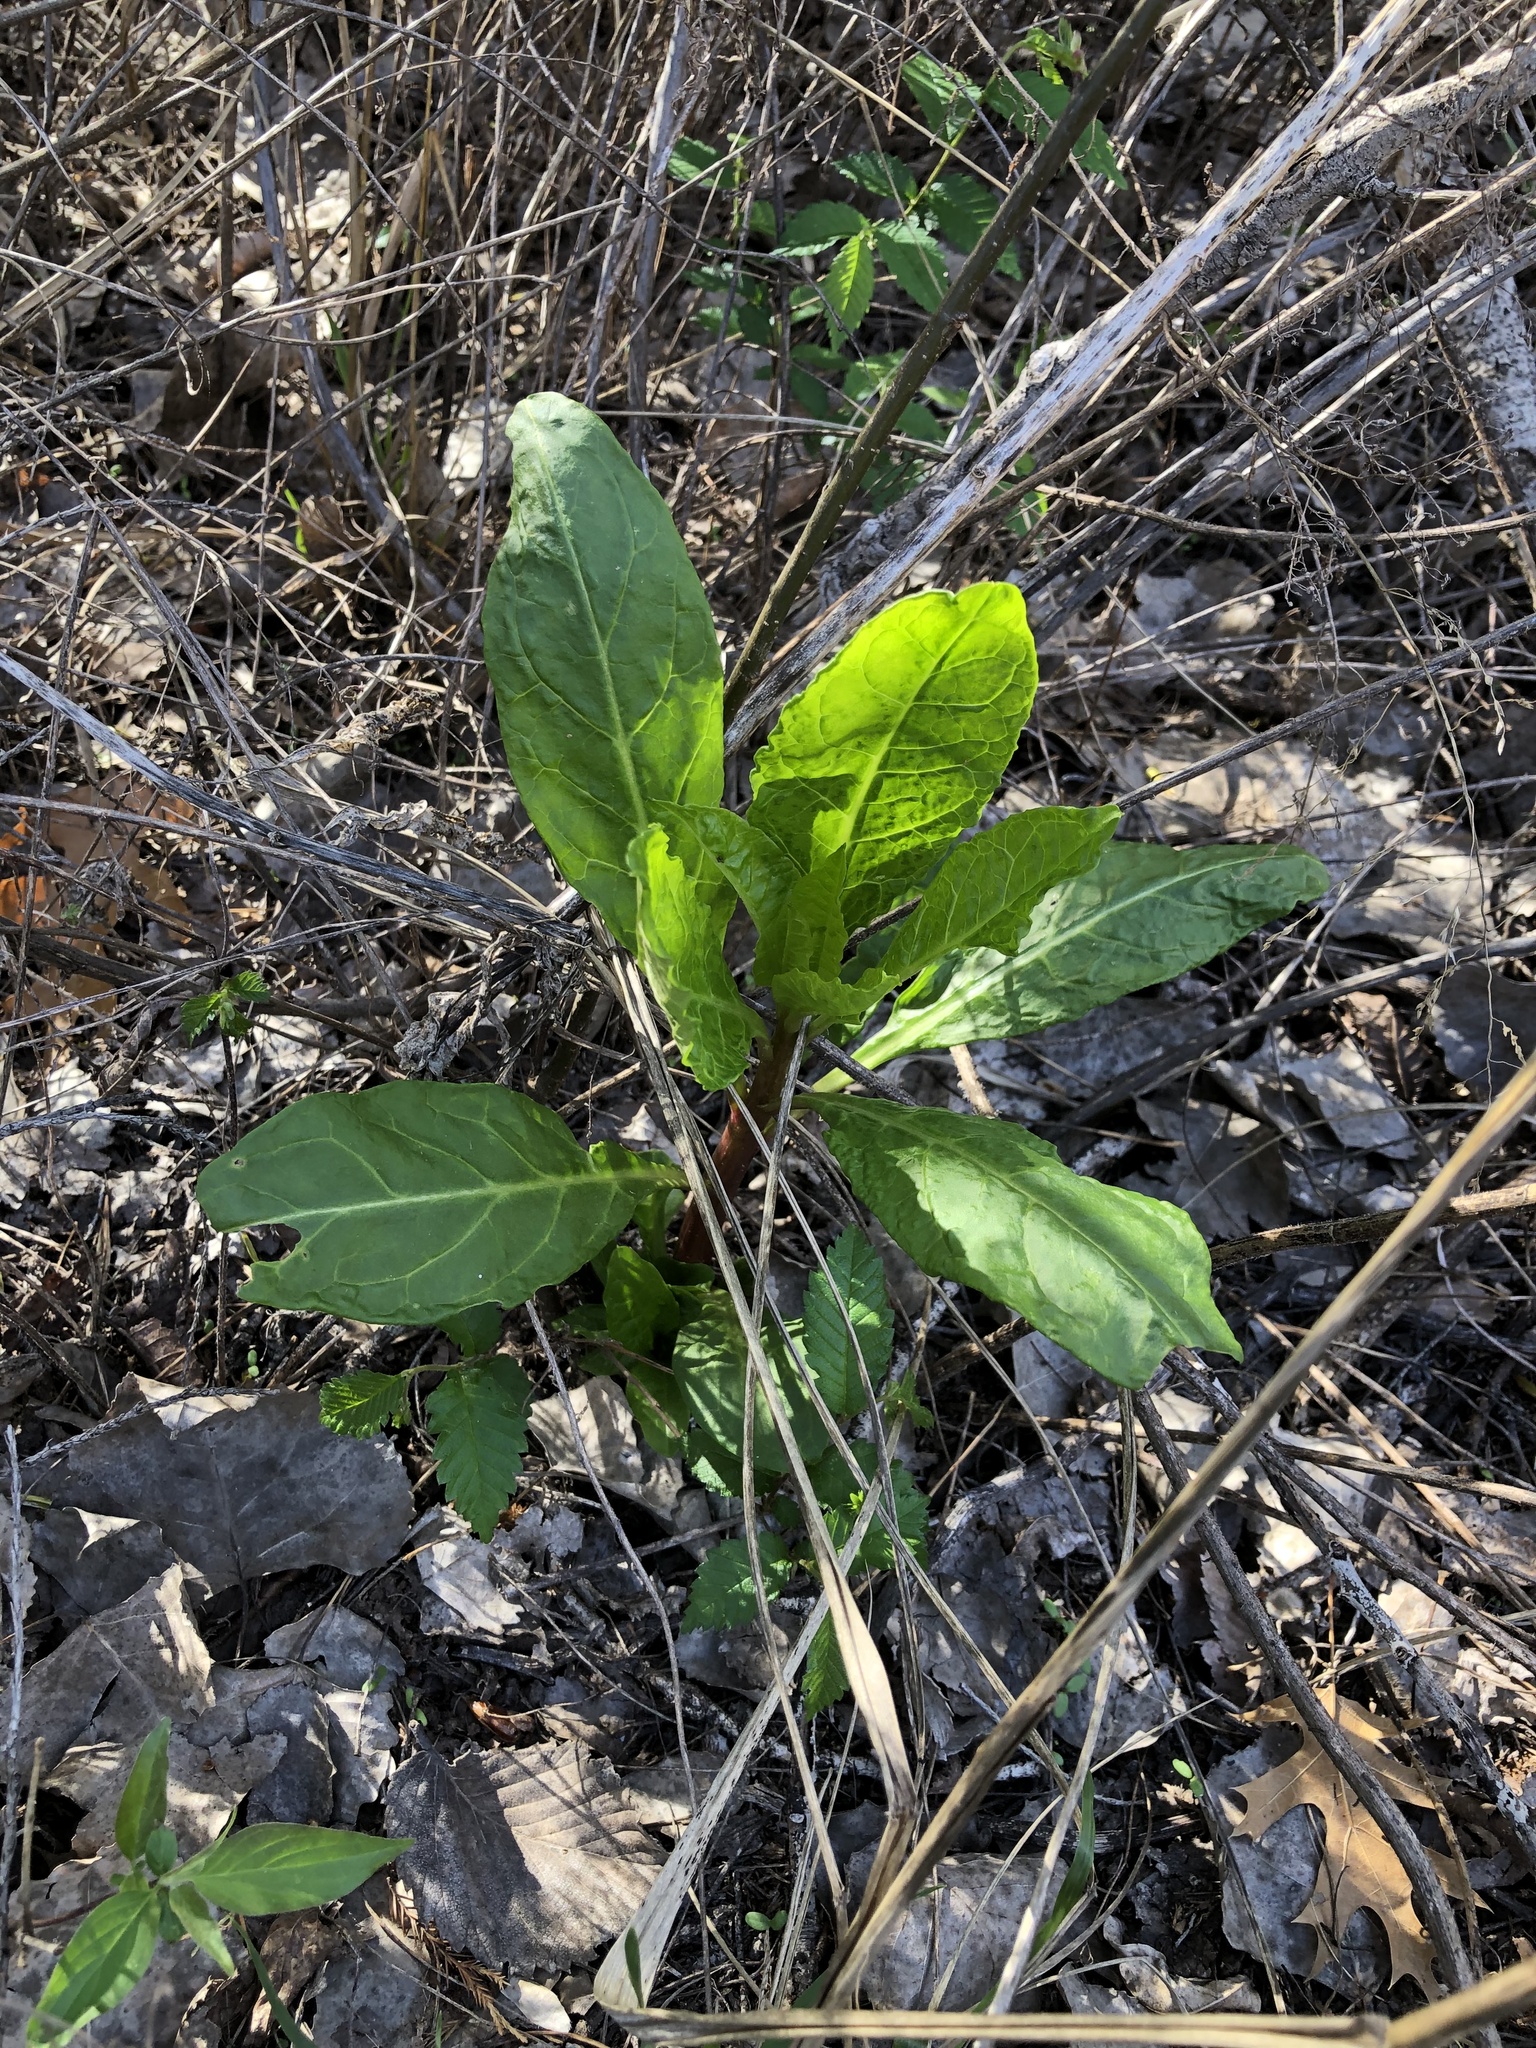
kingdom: Plantae
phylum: Tracheophyta
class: Magnoliopsida
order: Caryophyllales
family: Phytolaccaceae
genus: Phytolacca
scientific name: Phytolacca americana
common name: American pokeweed
